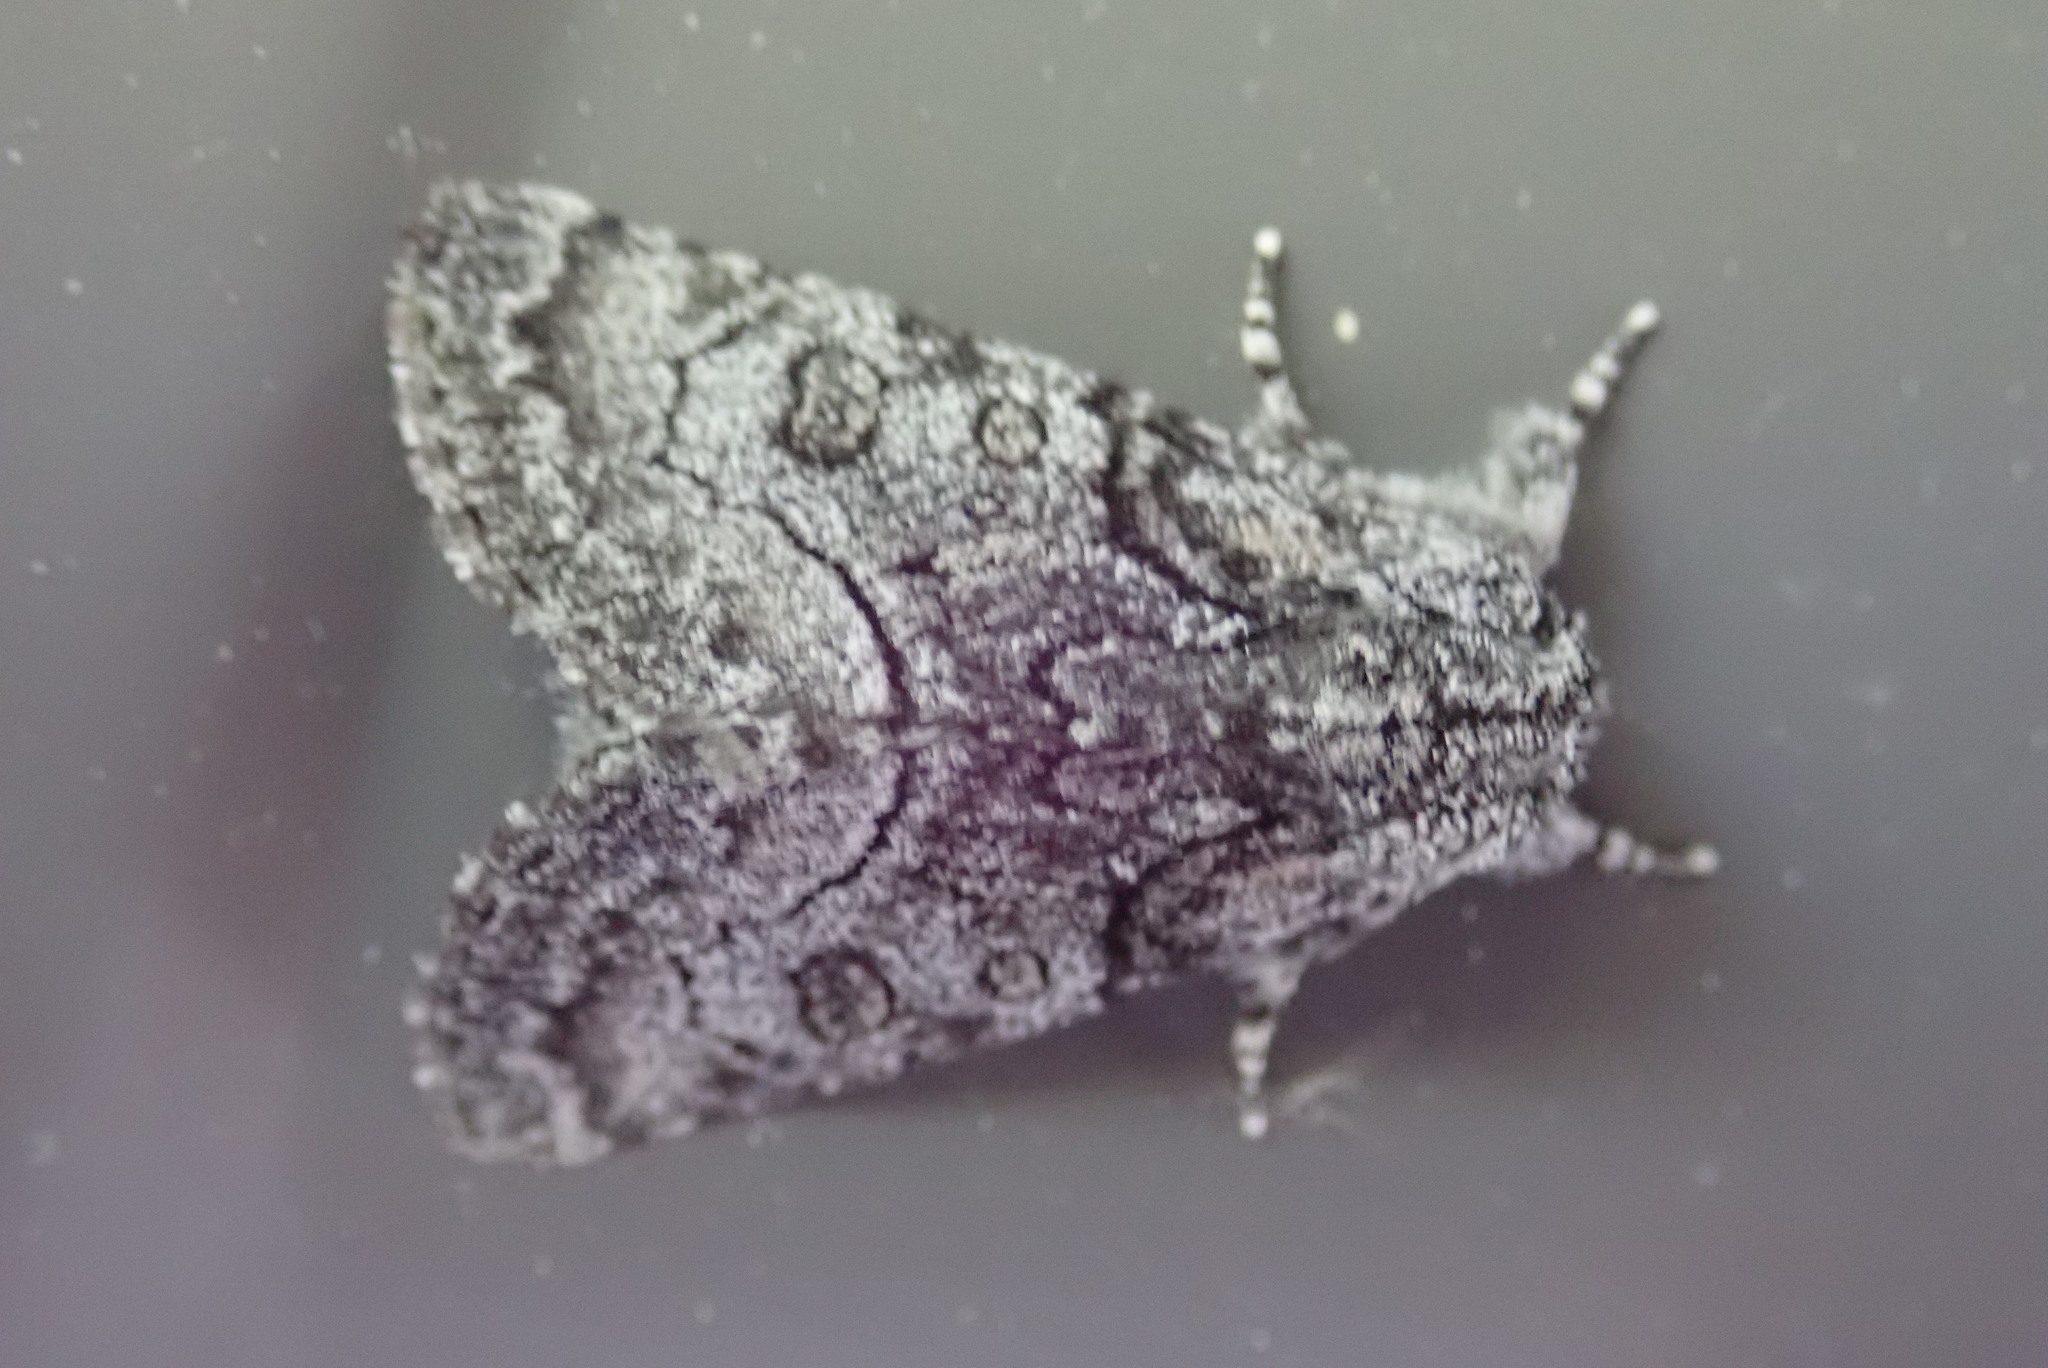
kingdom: Animalia
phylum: Arthropoda
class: Insecta
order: Lepidoptera
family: Noctuidae
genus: Raphia
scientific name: Raphia frater
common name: Brother
